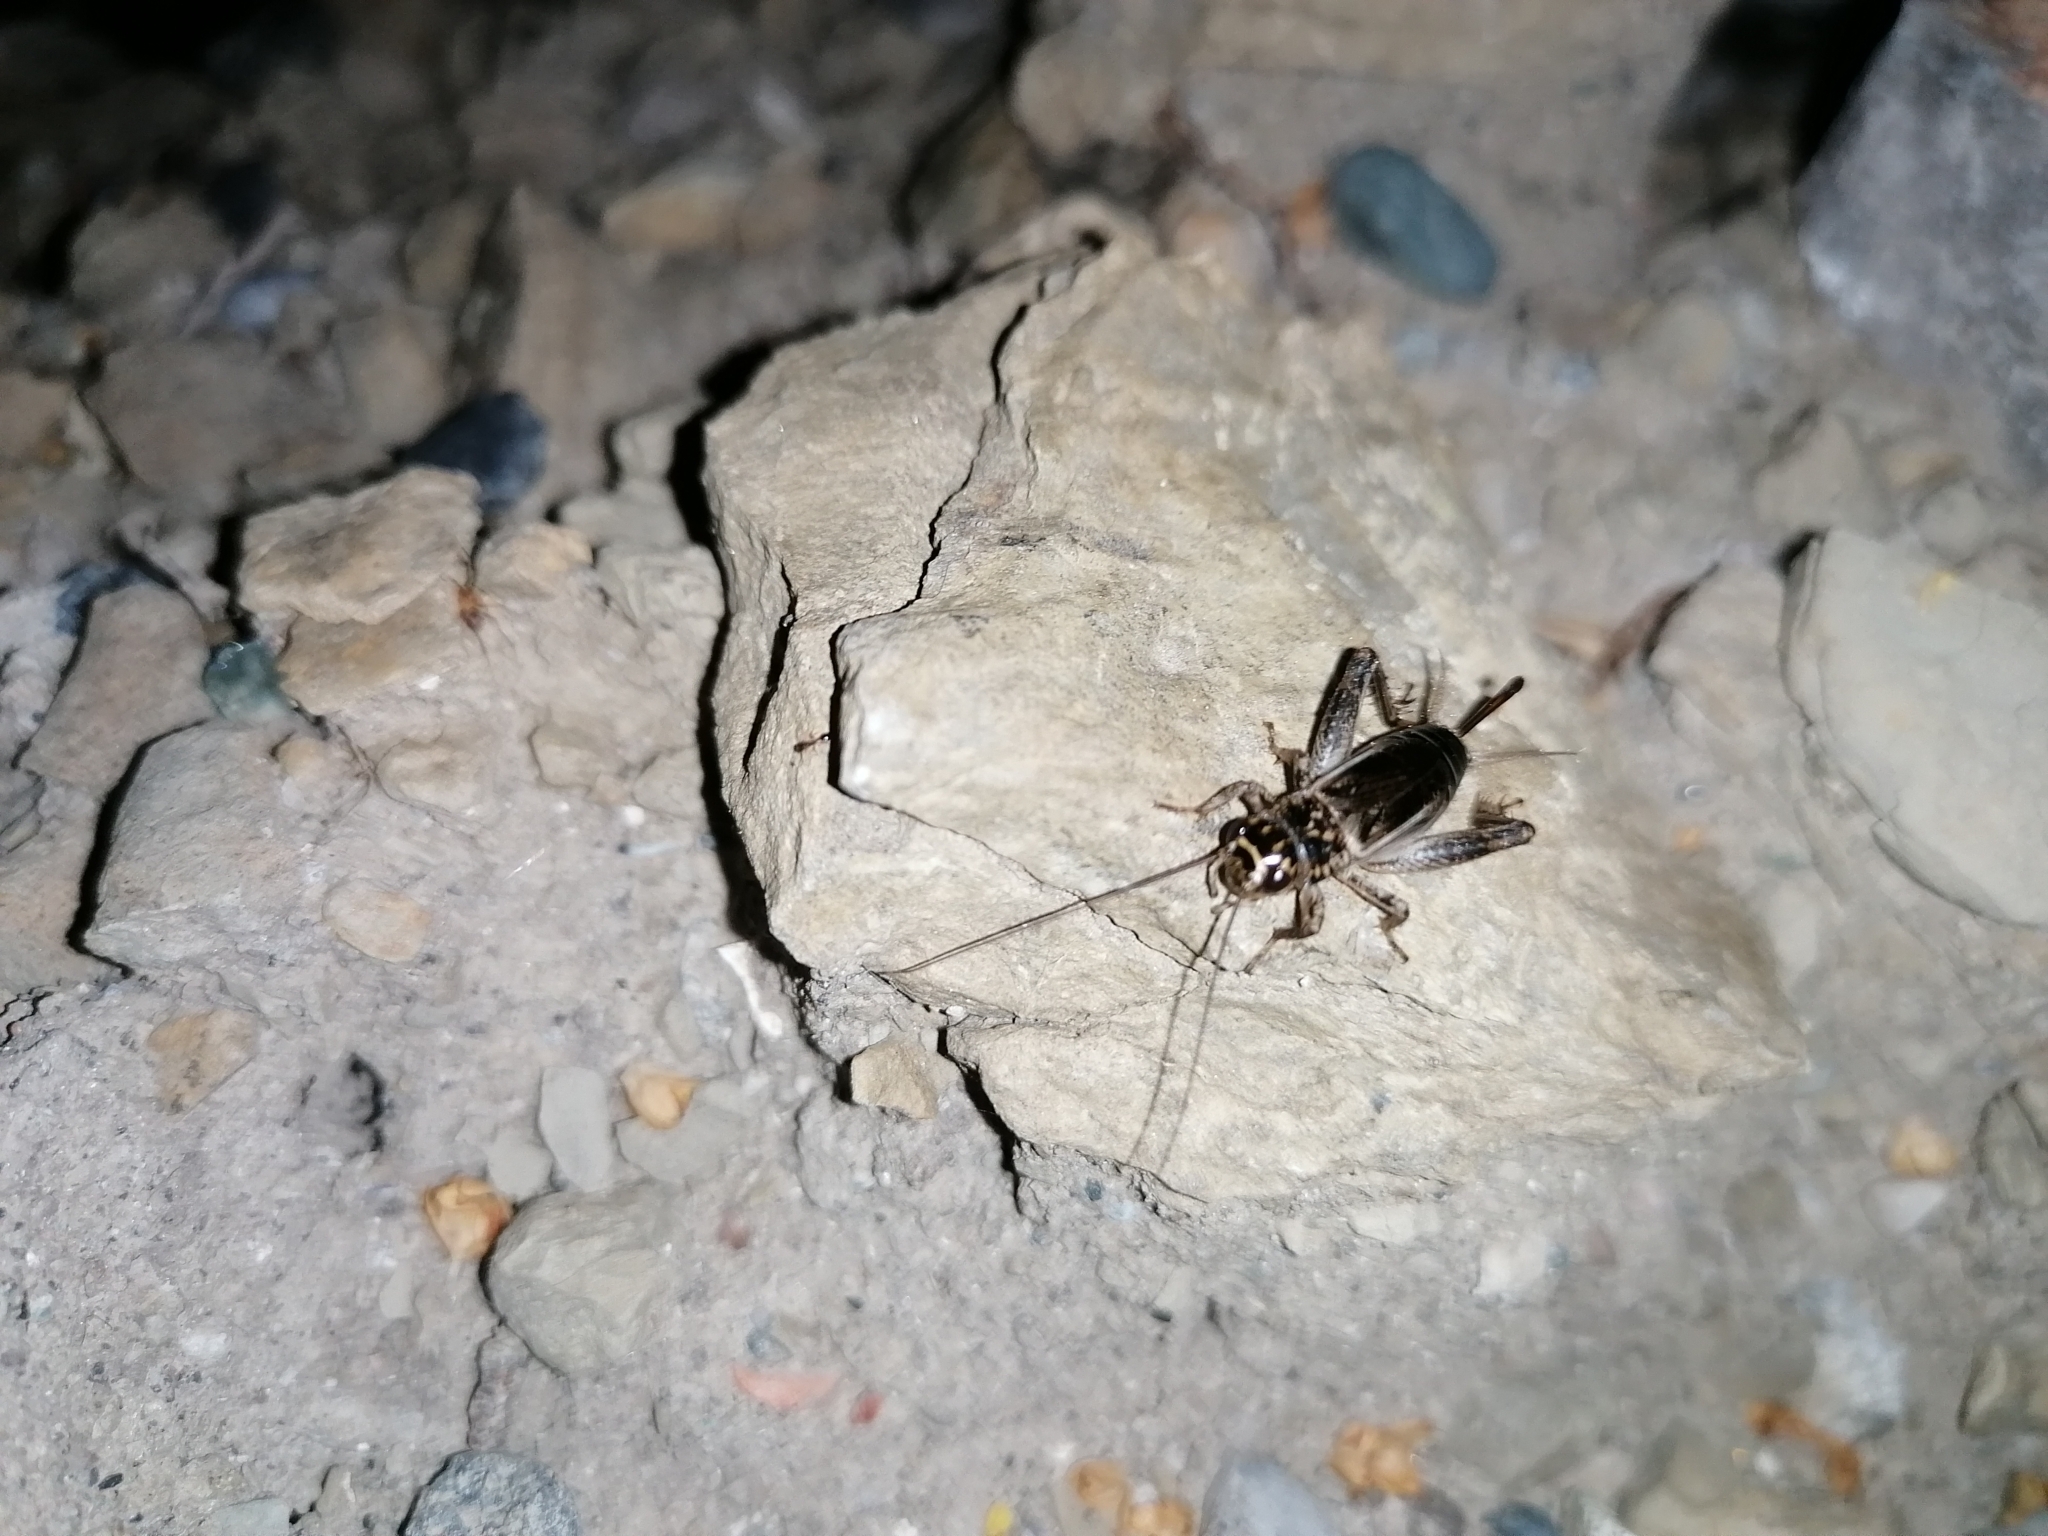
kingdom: Animalia
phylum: Arthropoda
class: Insecta
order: Orthoptera
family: Gryllidae
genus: Eumodicogryllus
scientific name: Eumodicogryllus bordigalensis
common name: Bordeaux cricket
